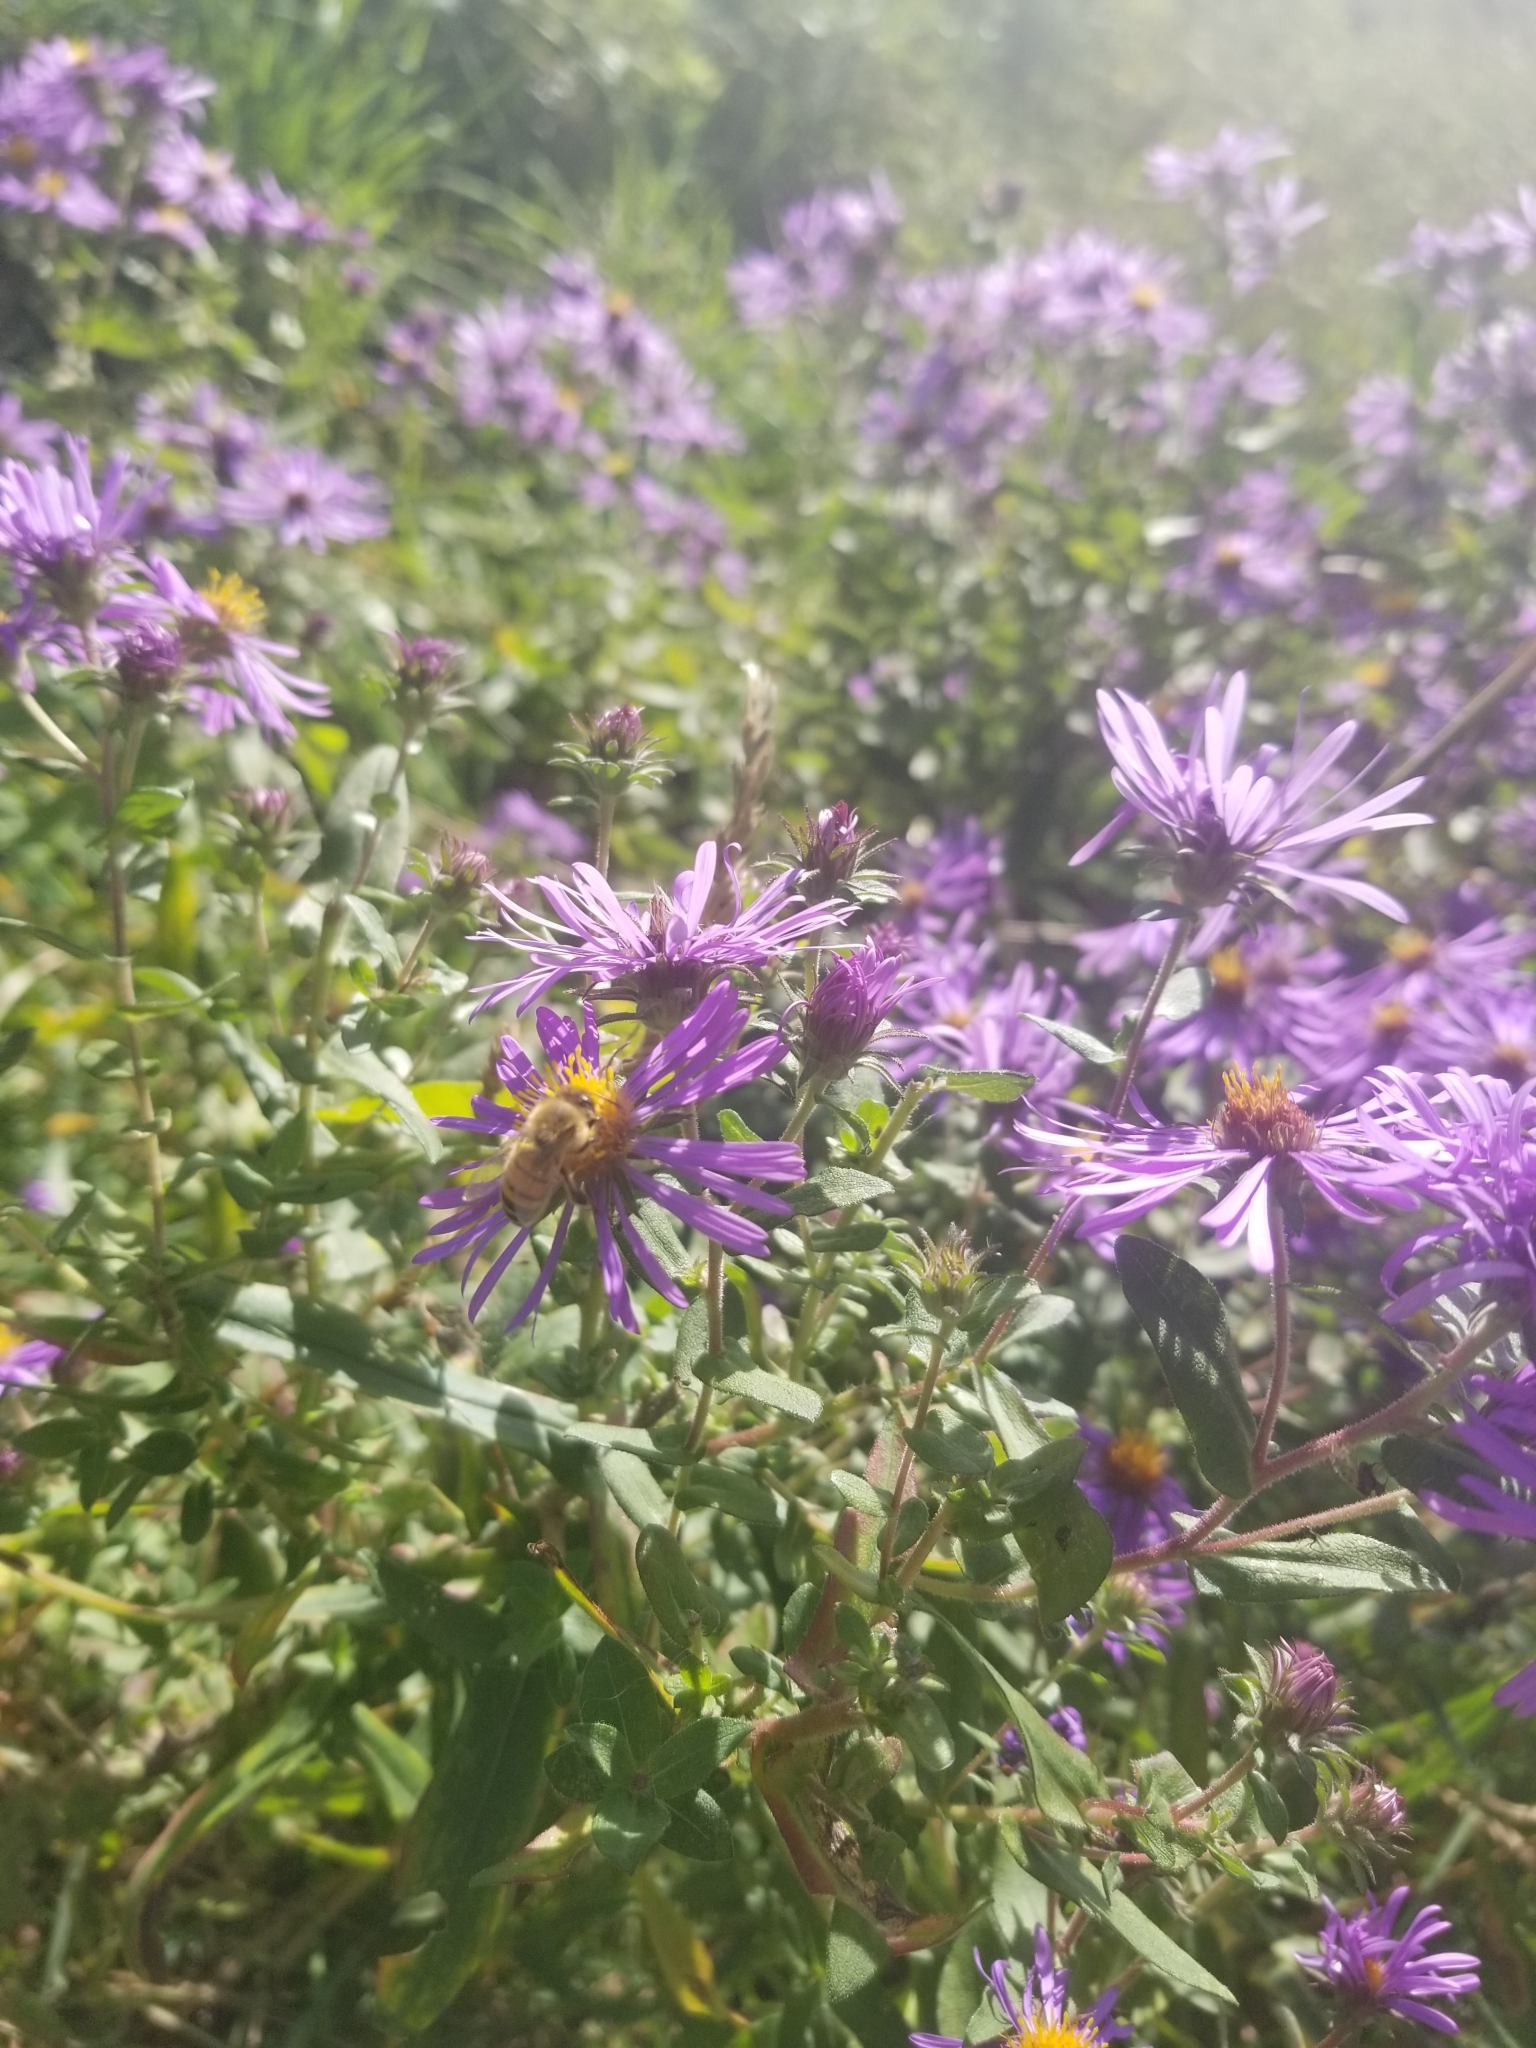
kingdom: Animalia
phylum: Arthropoda
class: Insecta
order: Hymenoptera
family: Apidae
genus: Apis
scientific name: Apis mellifera
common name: Honey bee
